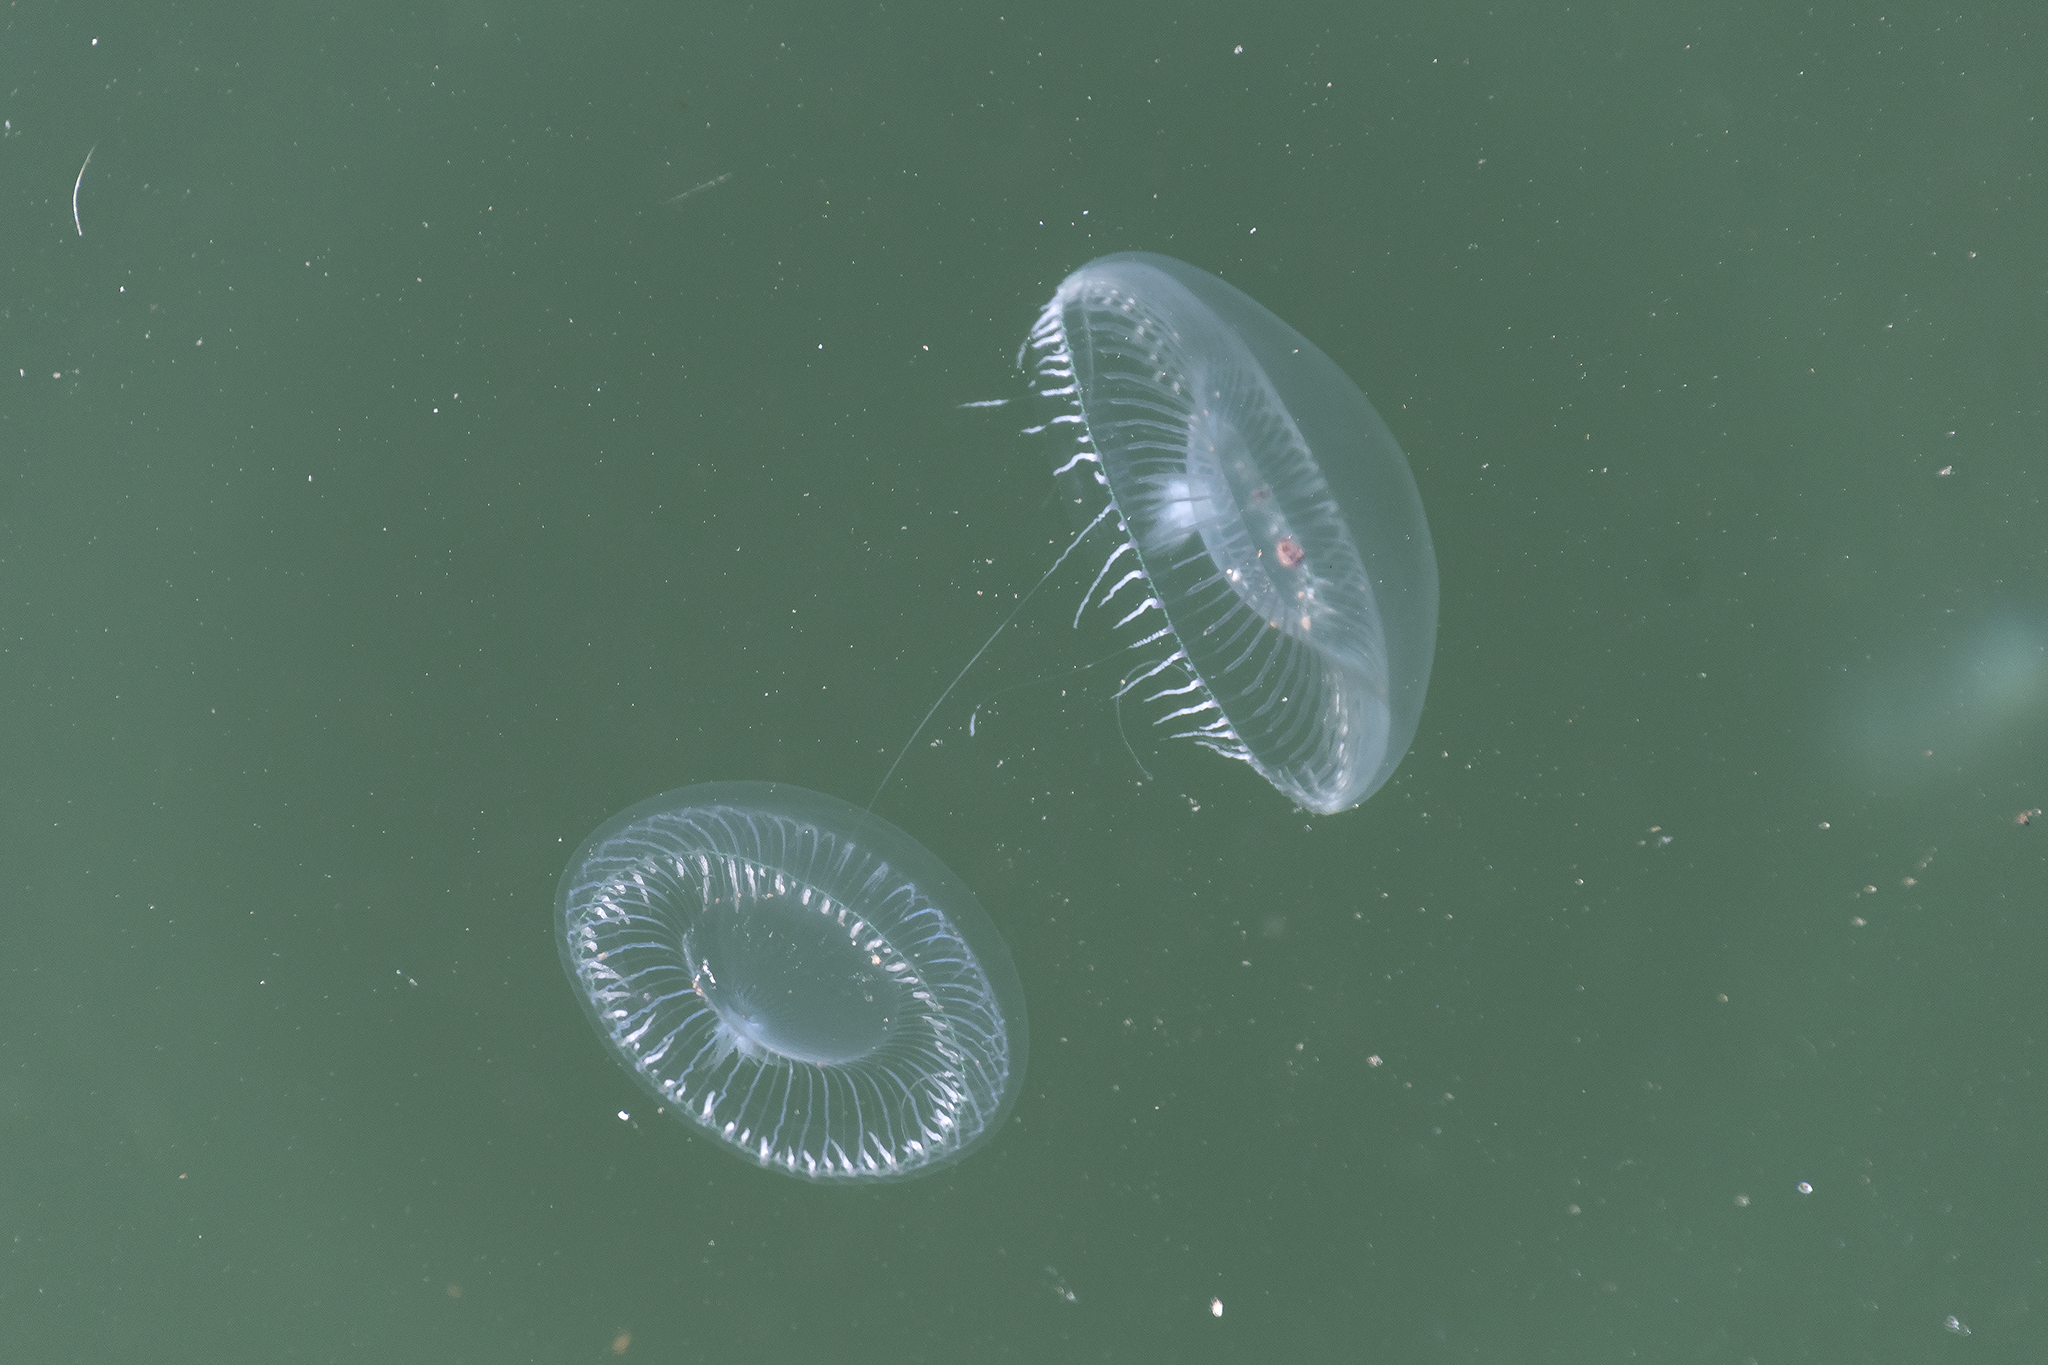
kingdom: Animalia
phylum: Cnidaria
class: Hydrozoa
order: Leptothecata
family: Aequoreidae
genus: Aequorea
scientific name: Aequorea victoria
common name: Water jellyfish
